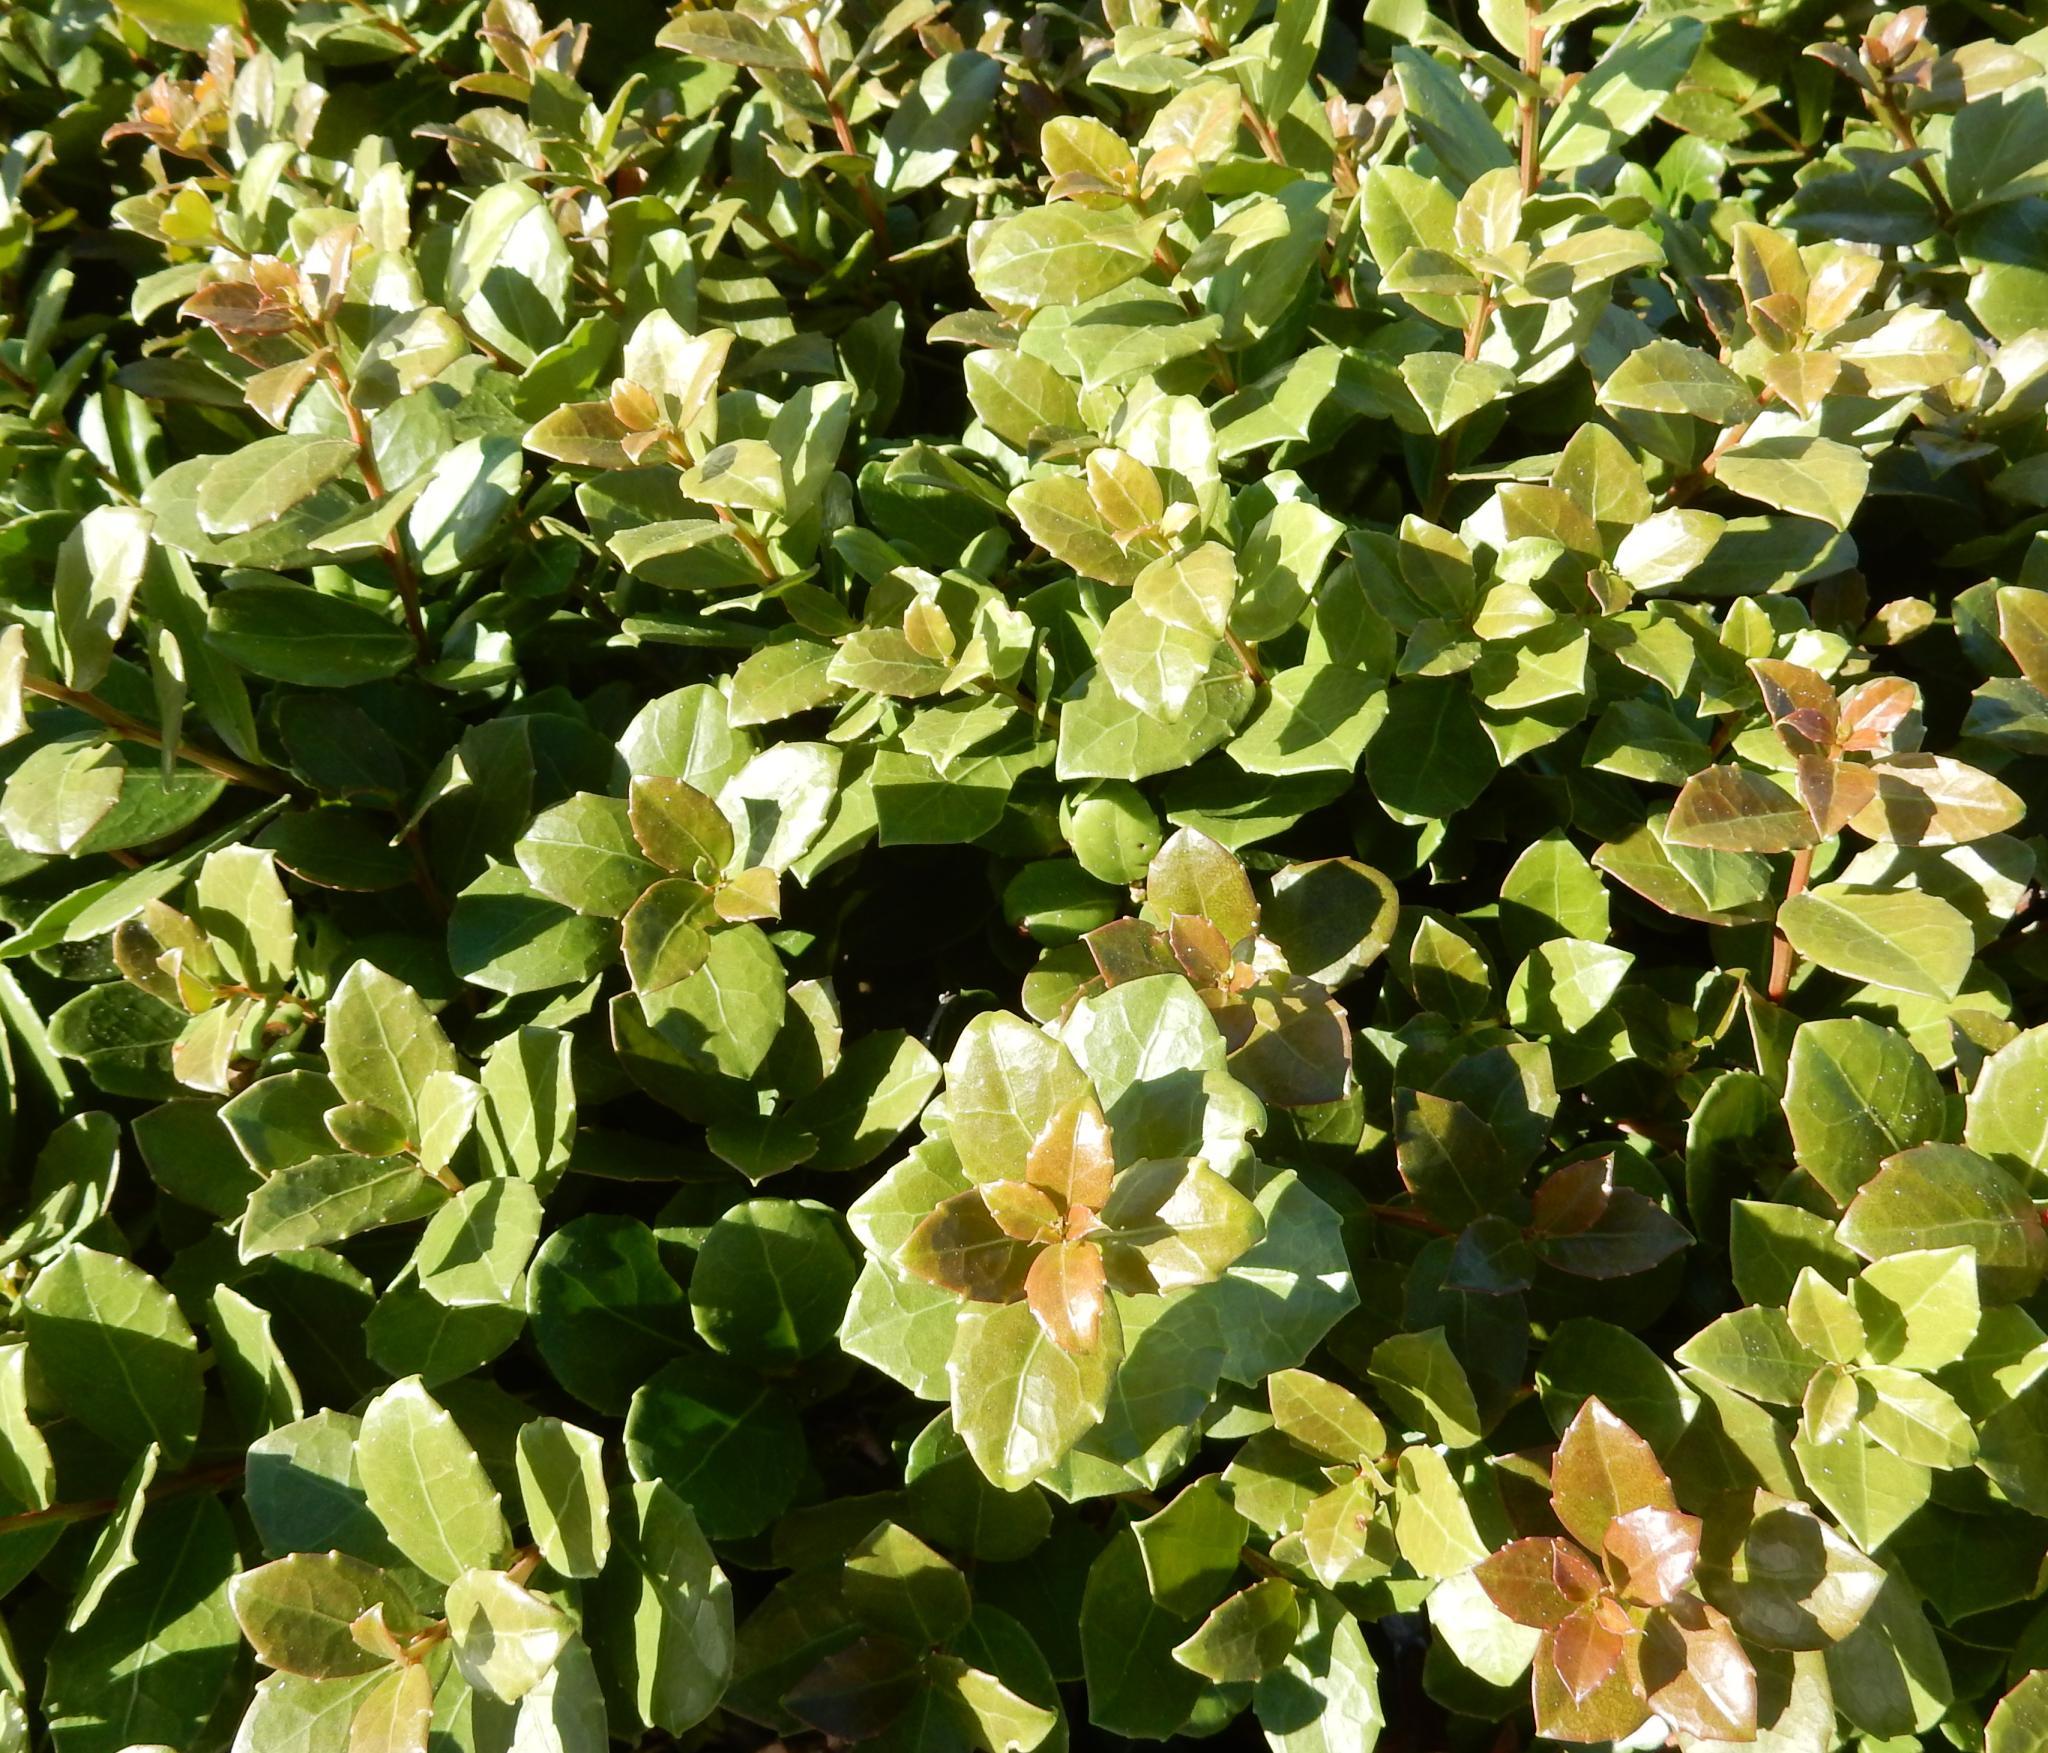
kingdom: Plantae
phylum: Tracheophyta
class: Magnoliopsida
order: Celastrales
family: Celastraceae
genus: Gymnosporia
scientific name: Gymnosporia procumbens
